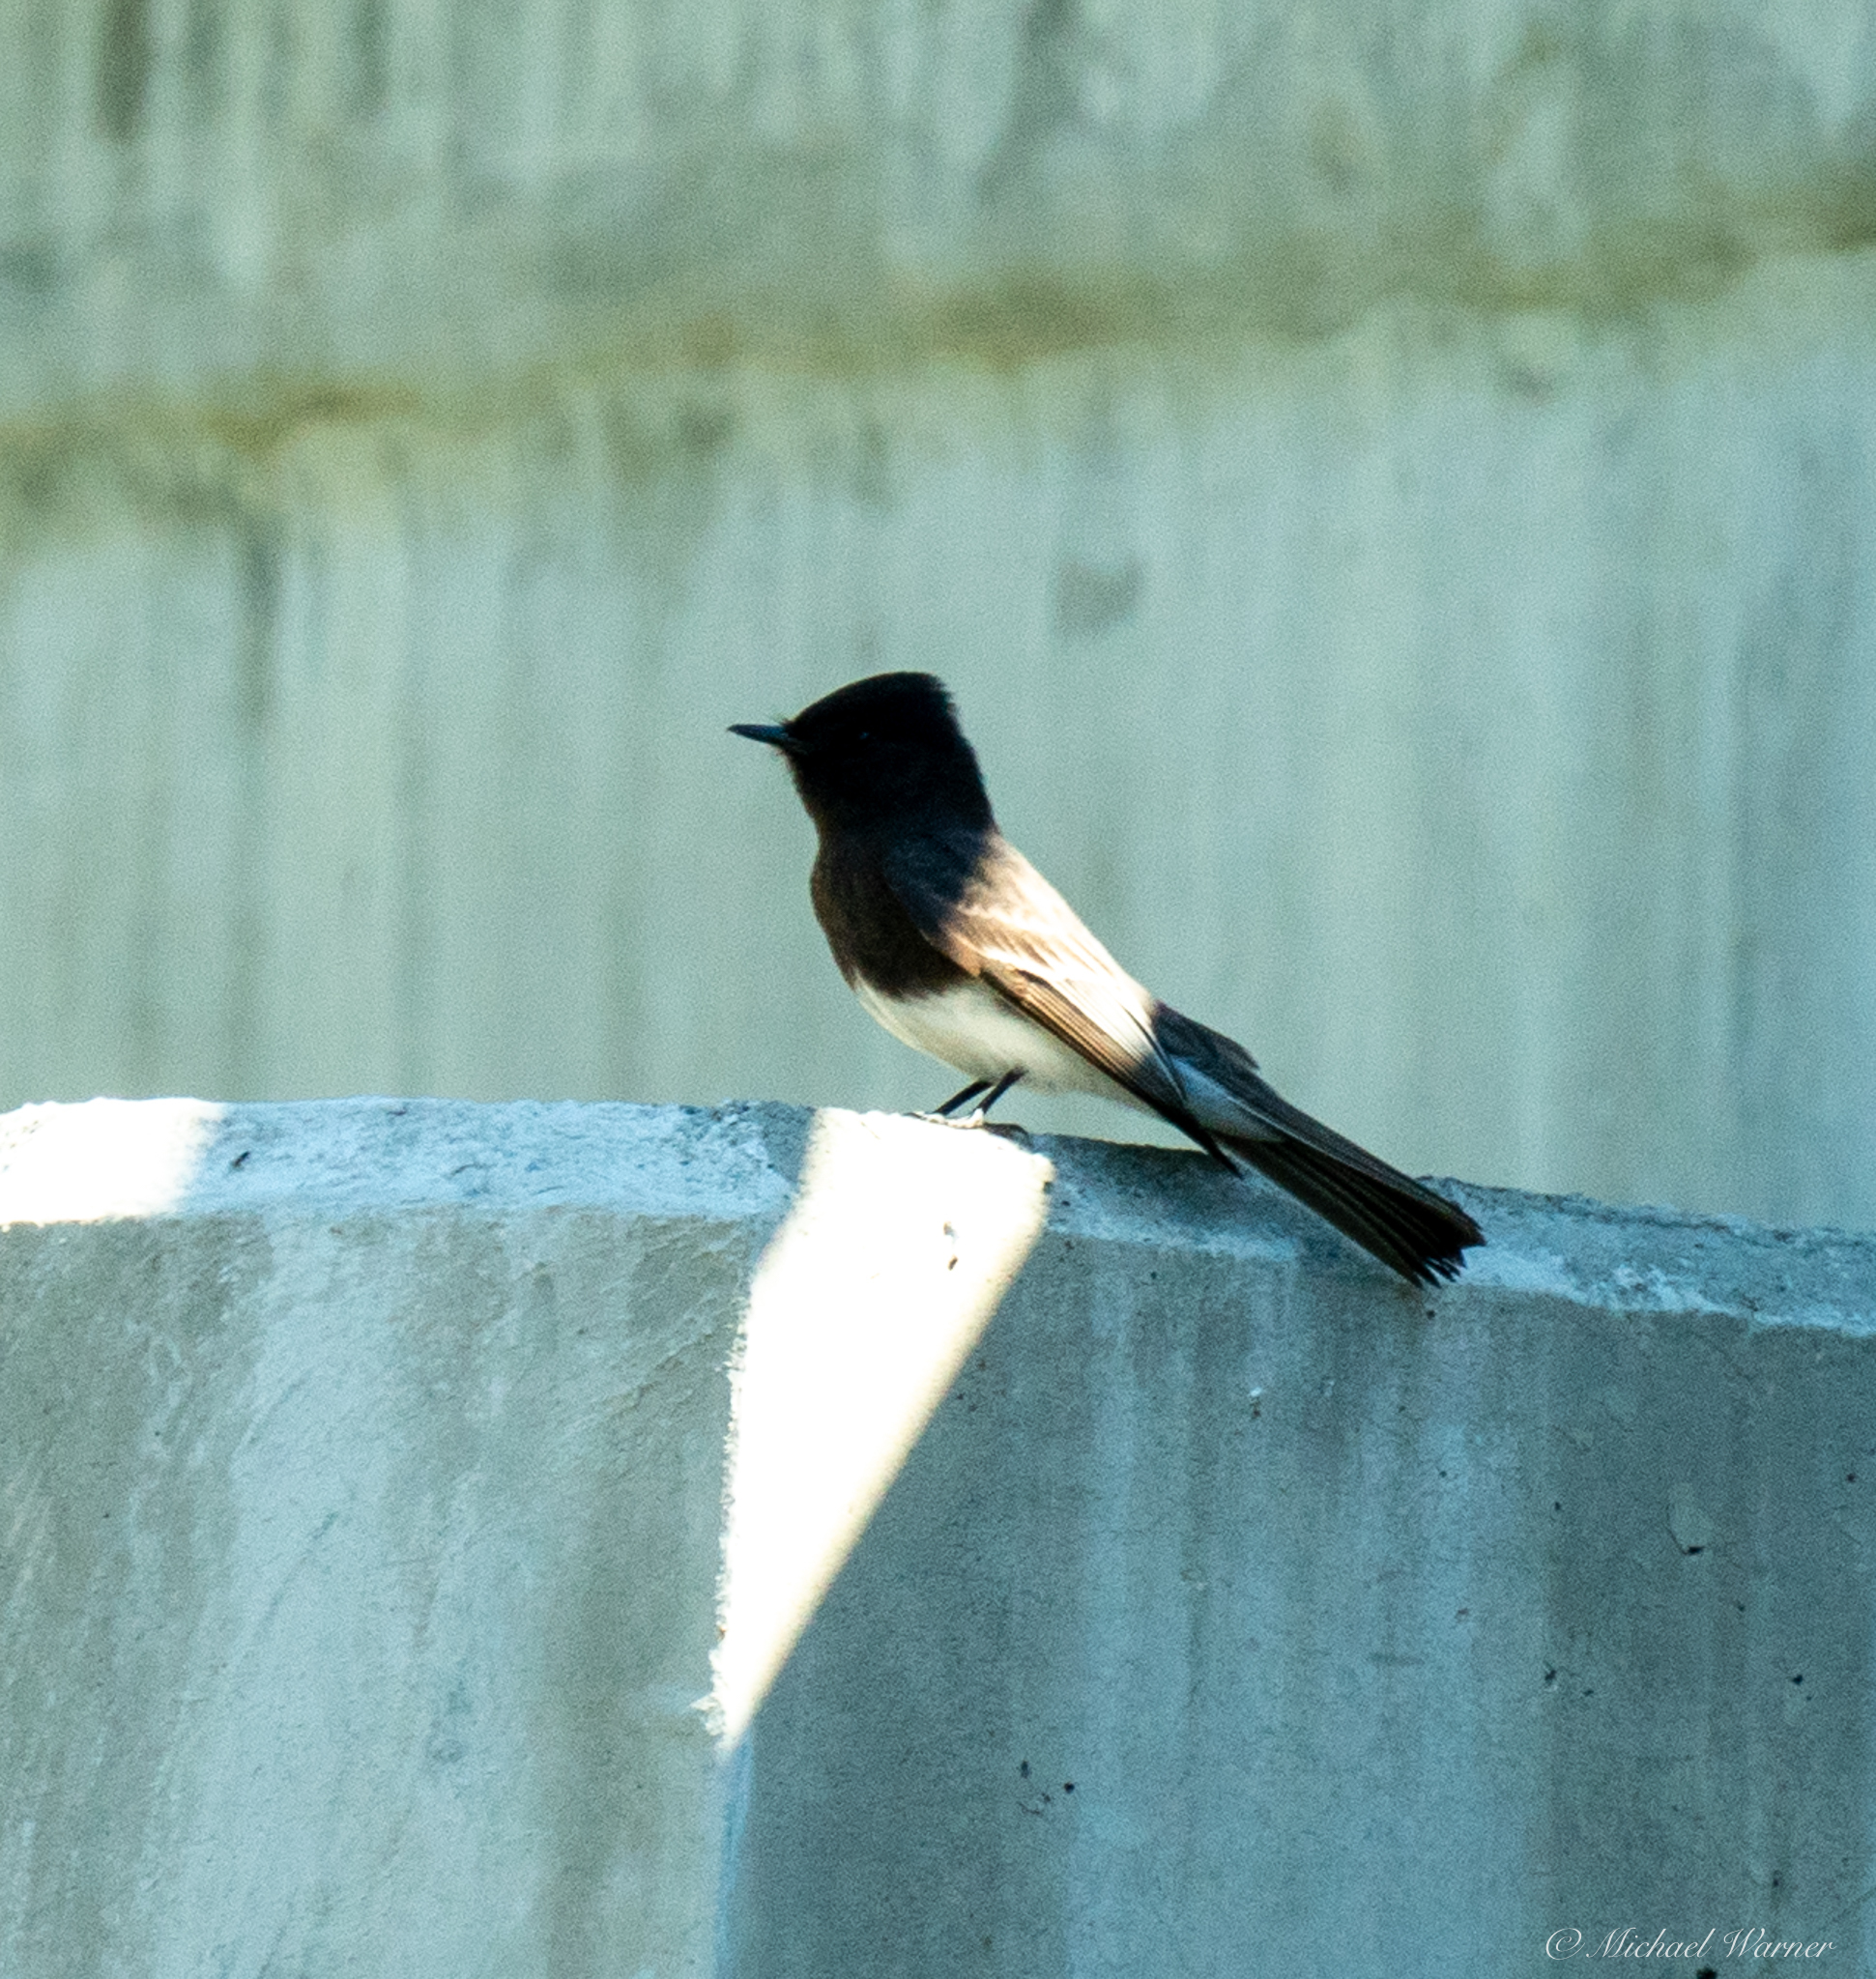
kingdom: Animalia
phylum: Chordata
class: Aves
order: Passeriformes
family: Tyrannidae
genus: Sayornis
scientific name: Sayornis nigricans
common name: Black phoebe
